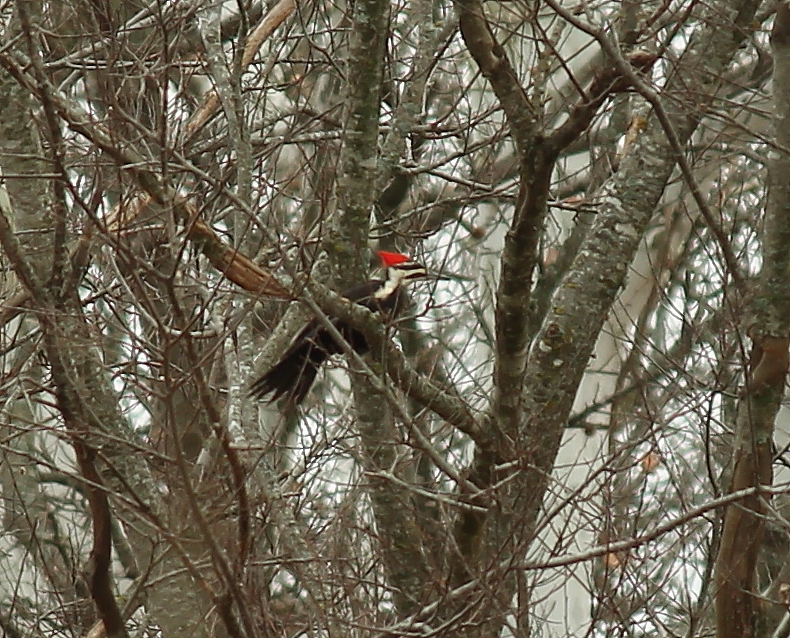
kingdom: Animalia
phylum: Chordata
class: Aves
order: Piciformes
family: Picidae
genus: Dryocopus
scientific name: Dryocopus pileatus
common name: Pileated woodpecker
